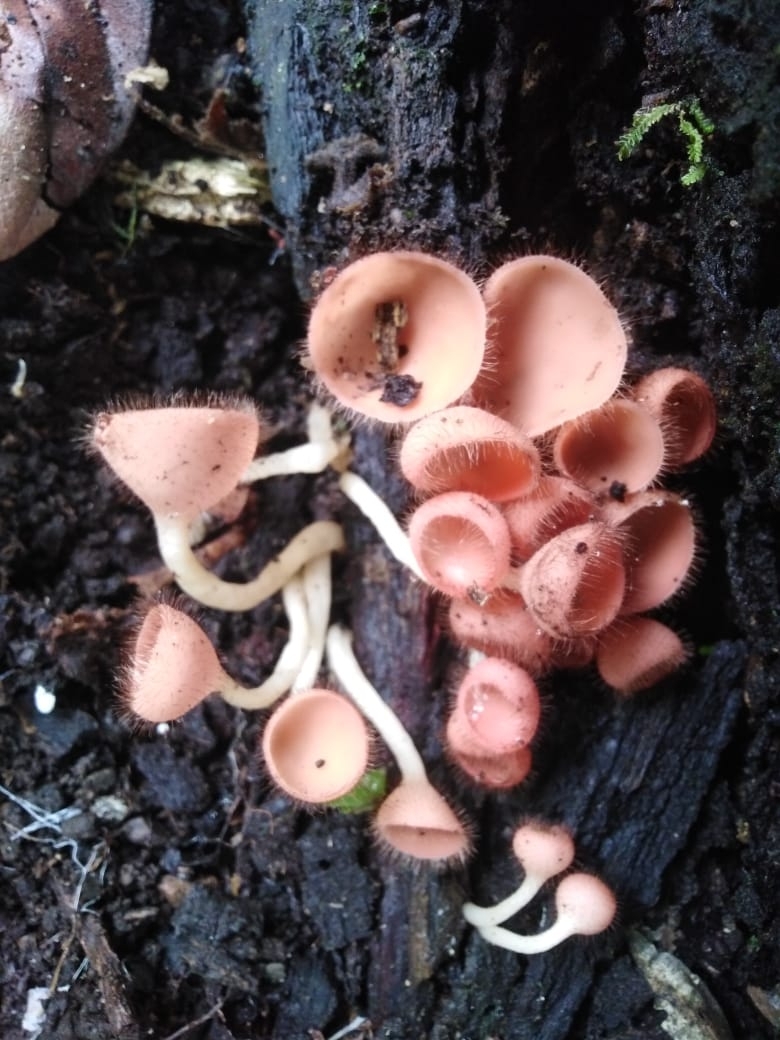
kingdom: Fungi
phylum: Ascomycota
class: Pezizomycetes
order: Pezizales
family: Sarcoscyphaceae
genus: Cookeina
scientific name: Cookeina tricholoma
